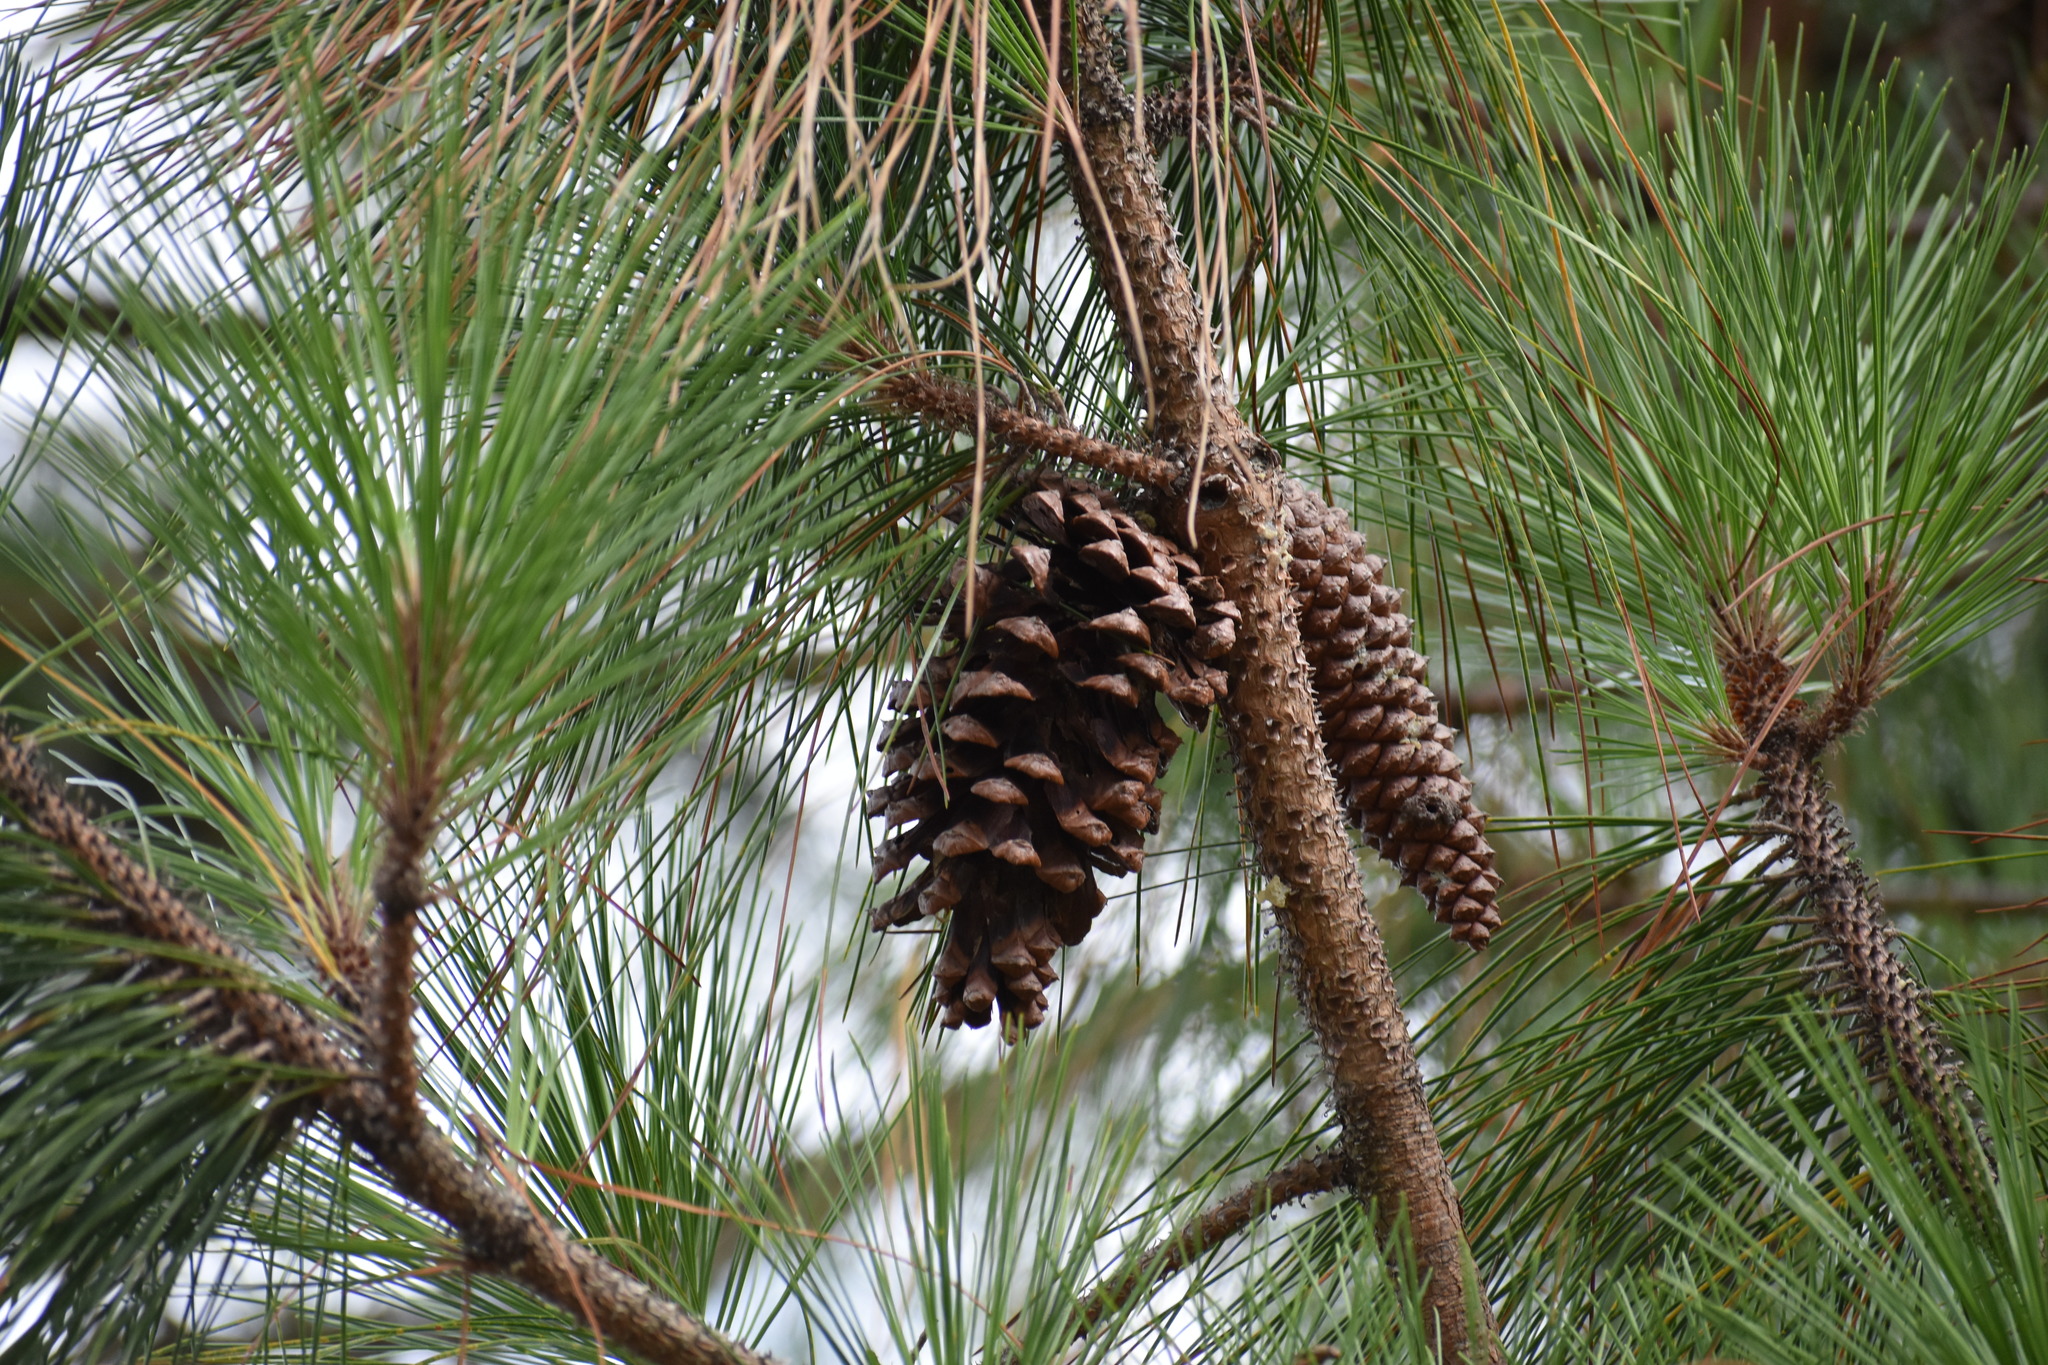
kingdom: Plantae
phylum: Tracheophyta
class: Pinopsida
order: Pinales
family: Pinaceae
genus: Pinus
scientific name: Pinus taeda
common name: Loblolly pine
